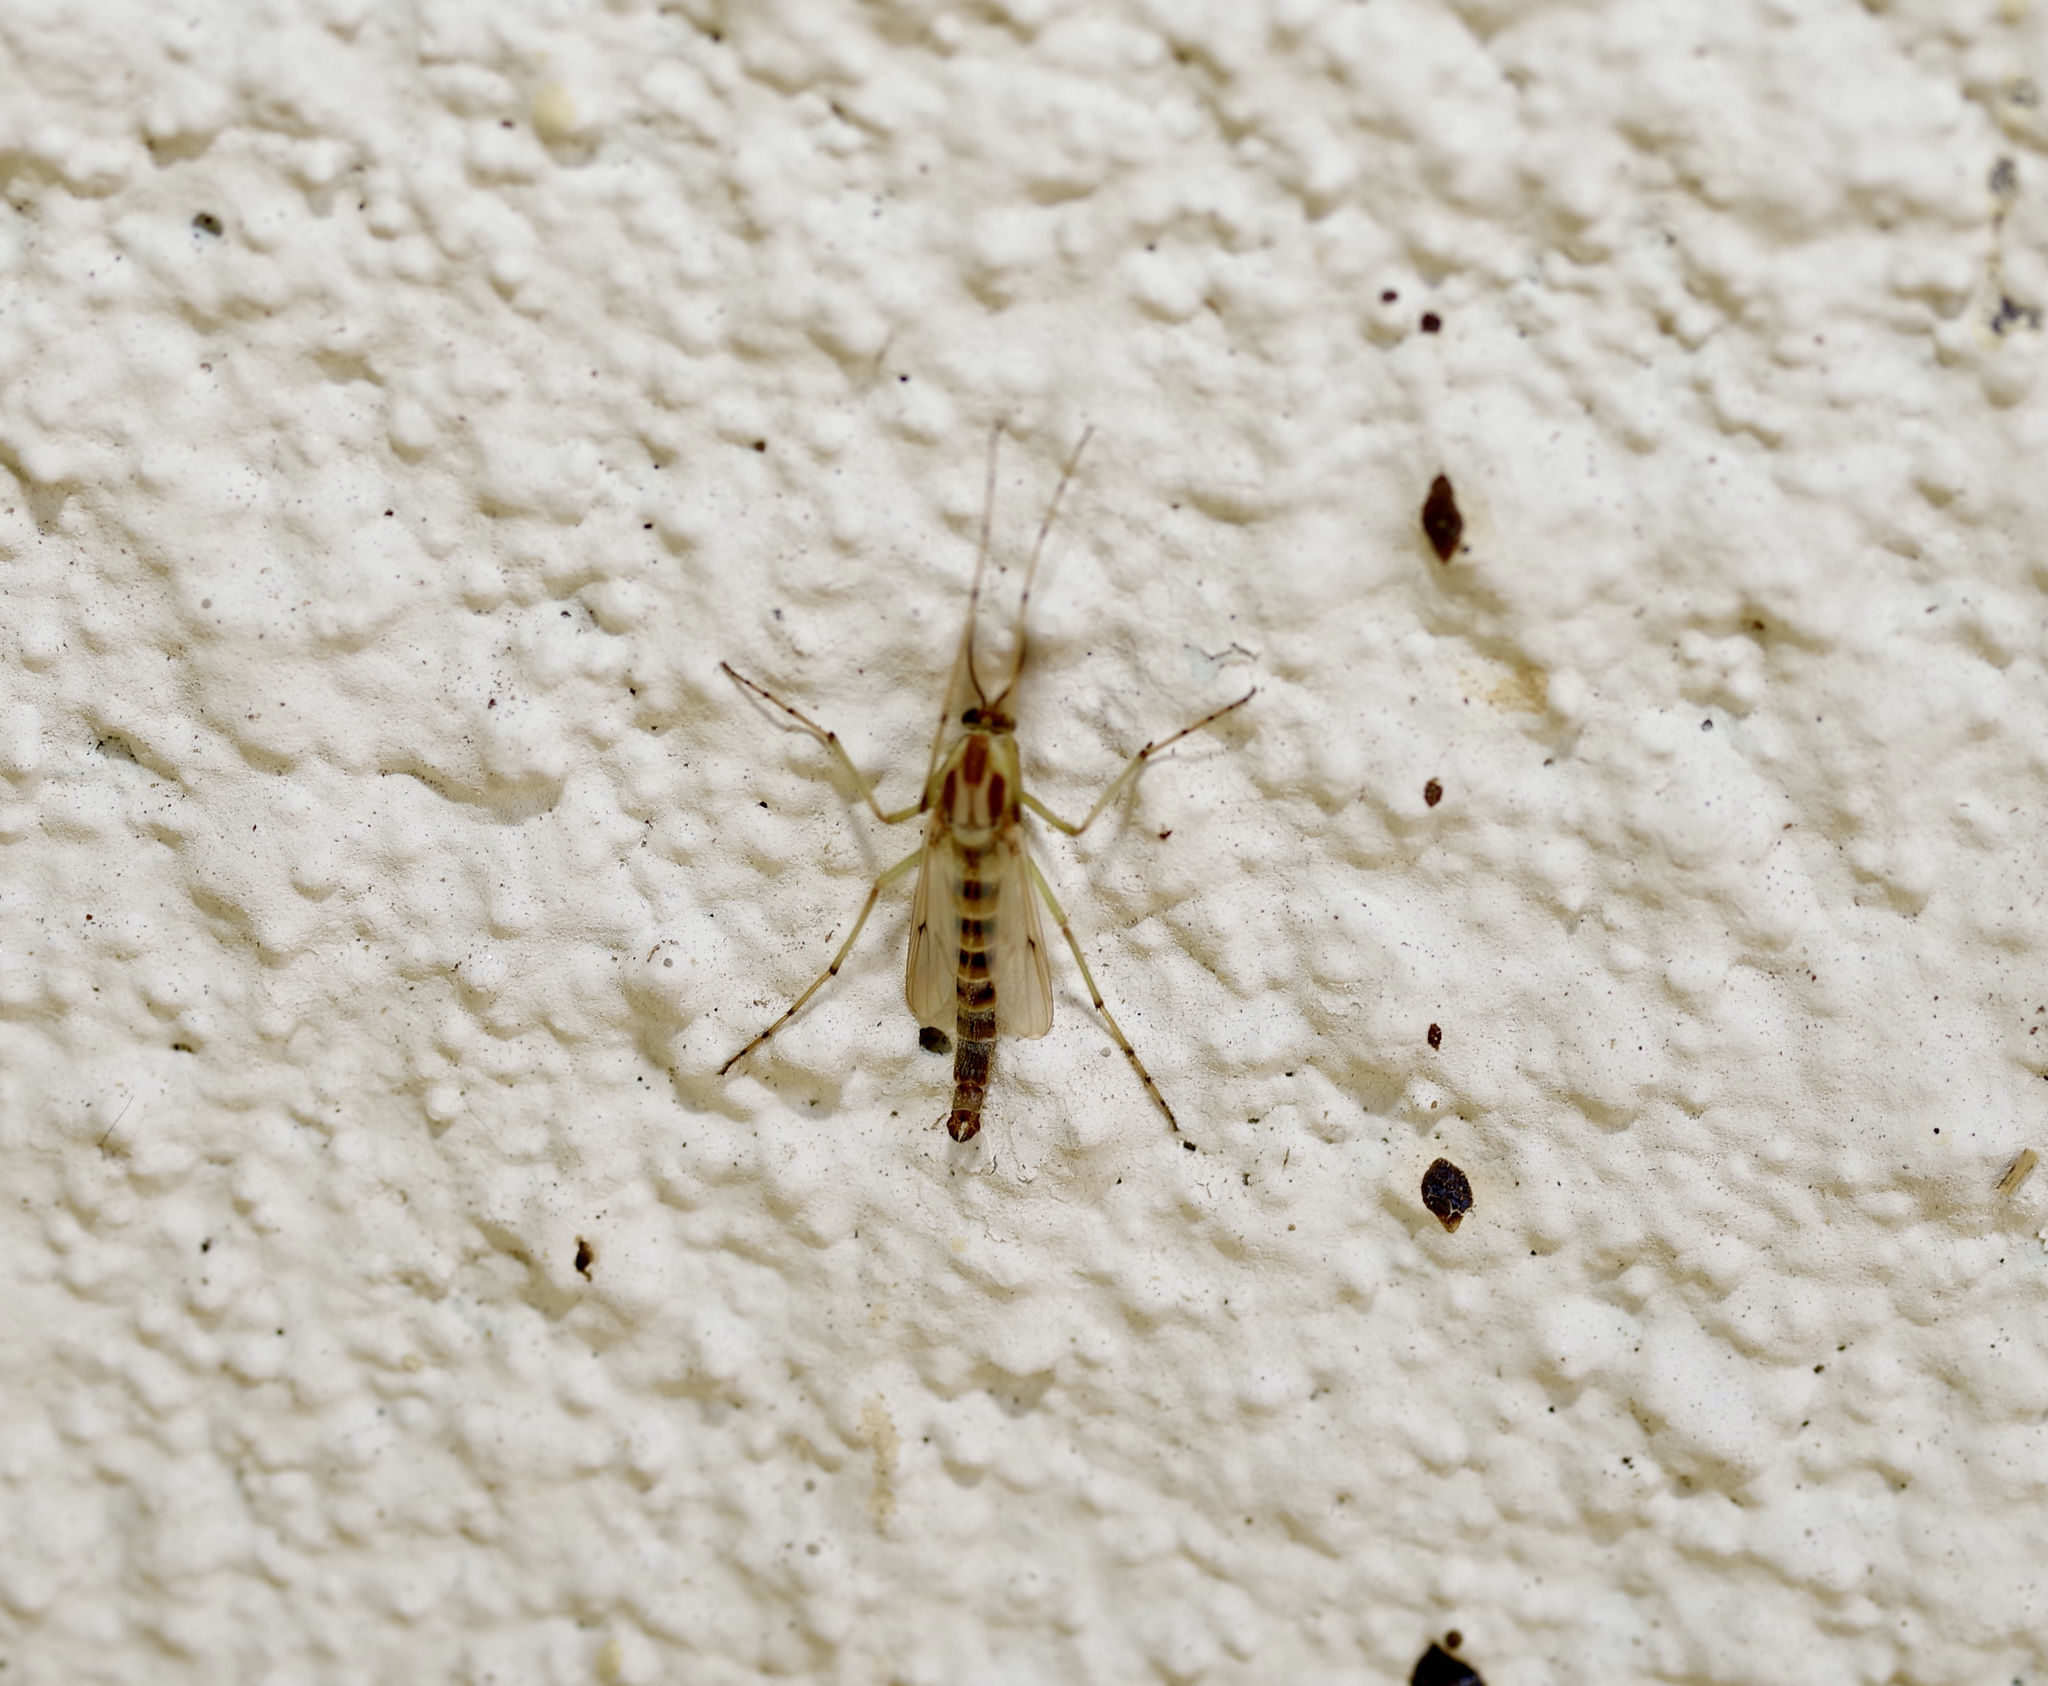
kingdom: Animalia
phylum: Arthropoda
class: Insecta
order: Diptera
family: Chironomidae
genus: Chironomus
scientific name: Chironomus crassicaudatus
